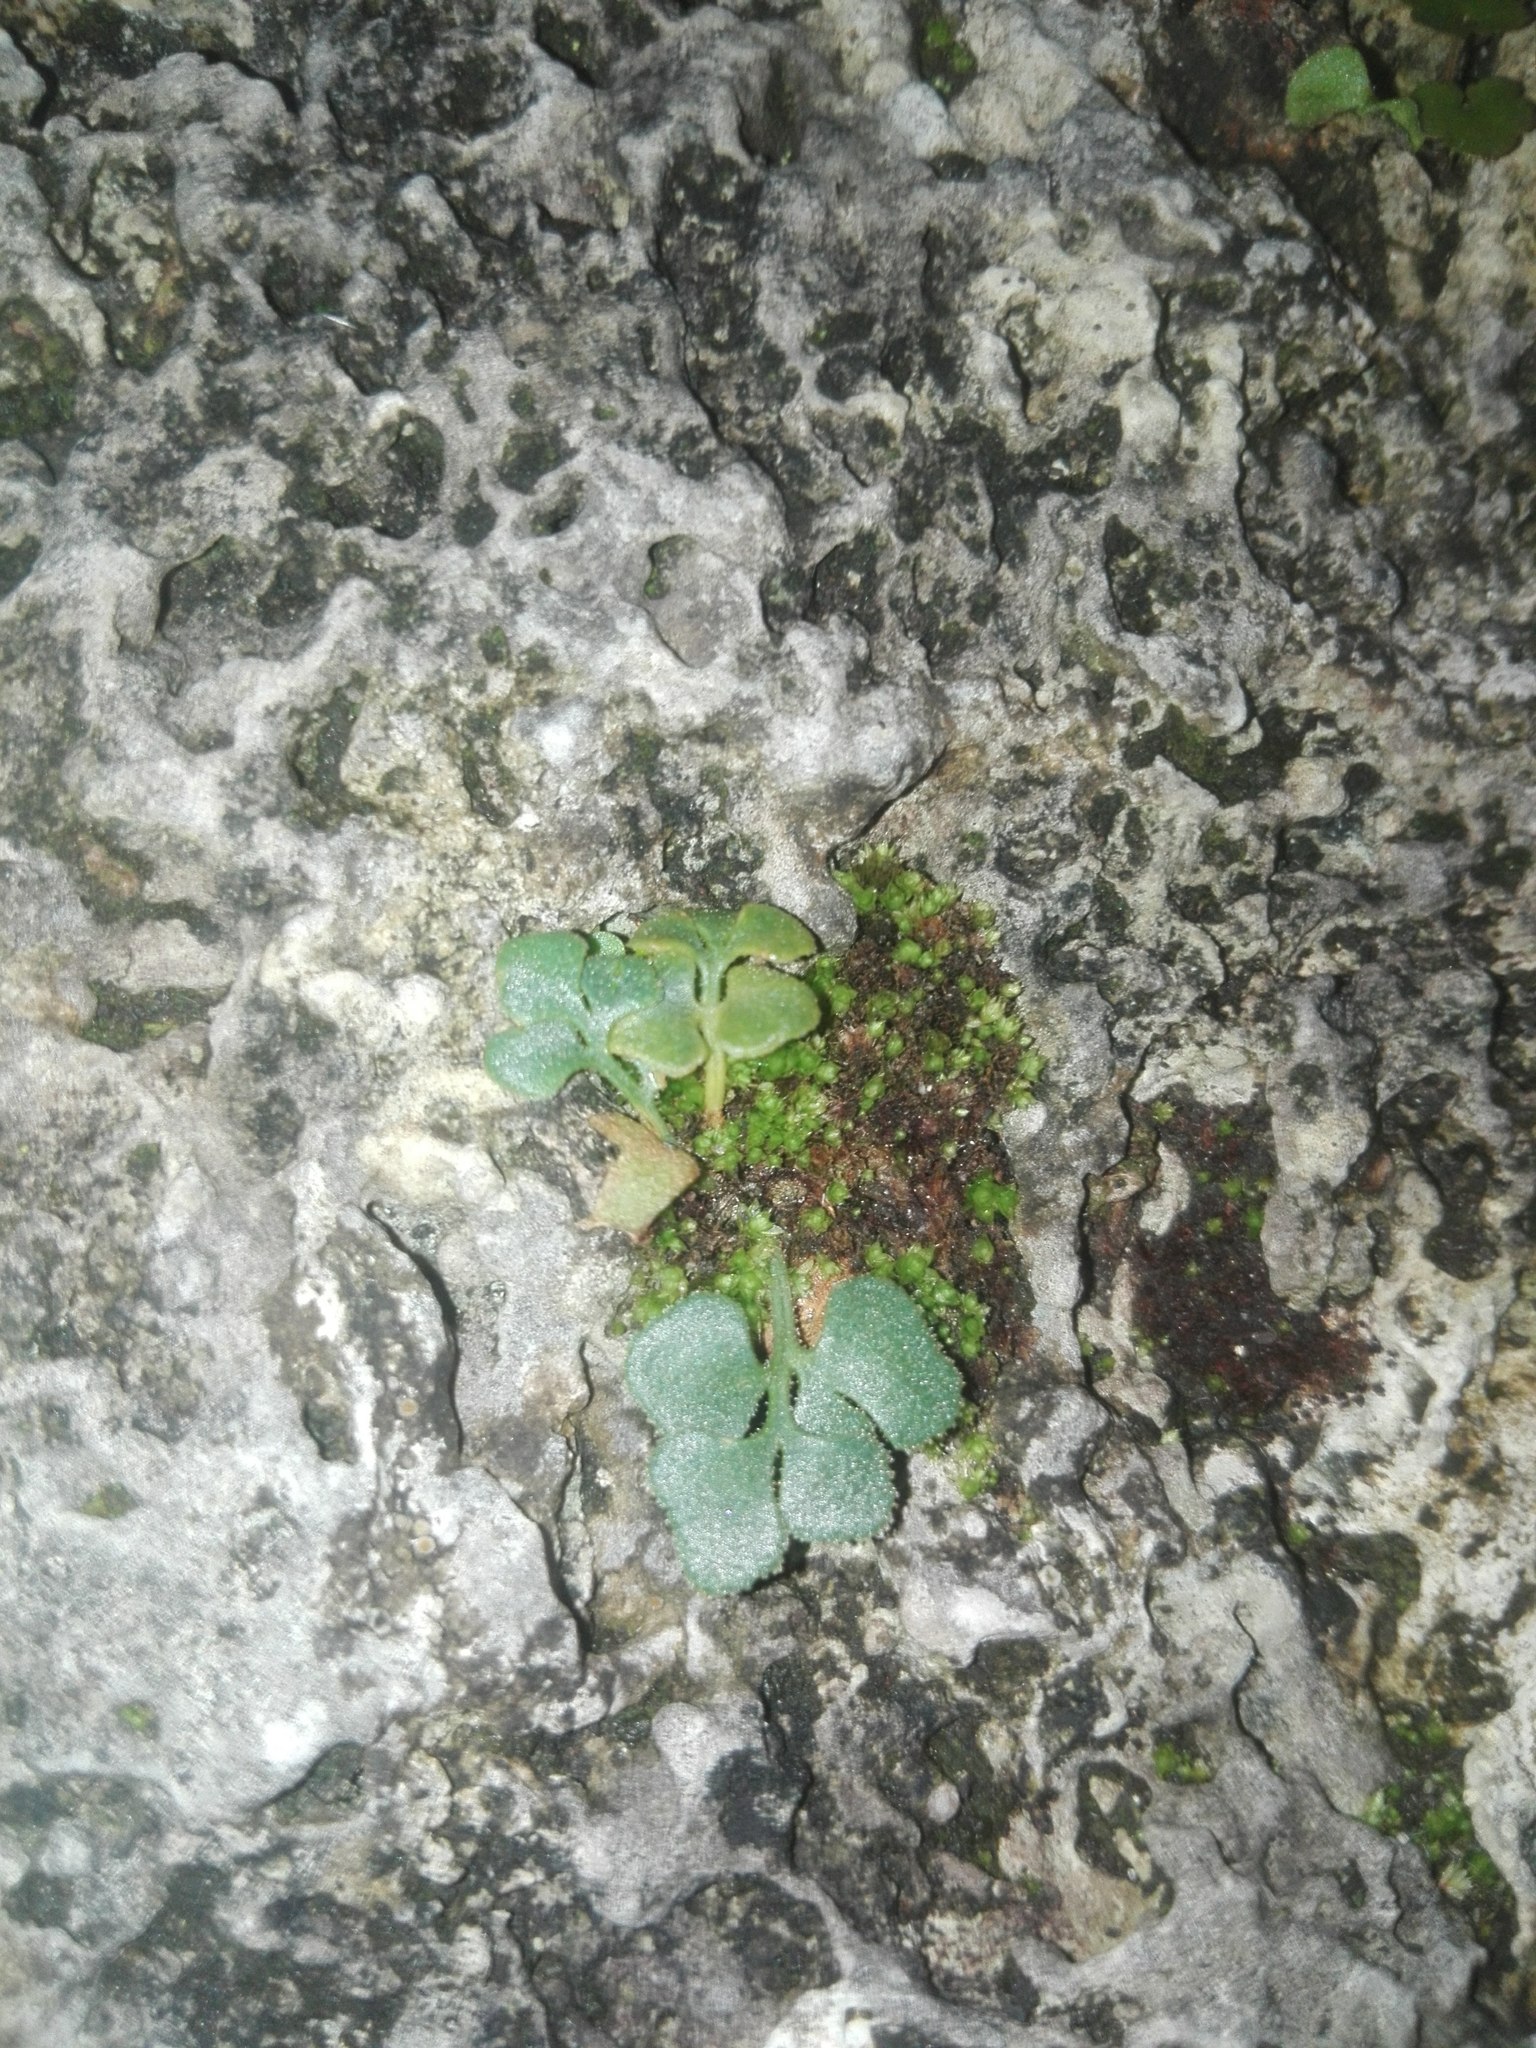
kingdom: Plantae
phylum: Tracheophyta
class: Polypodiopsida
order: Polypodiales
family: Aspleniaceae
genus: Asplenium
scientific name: Asplenium ruta-muraria
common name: Wall-rue
